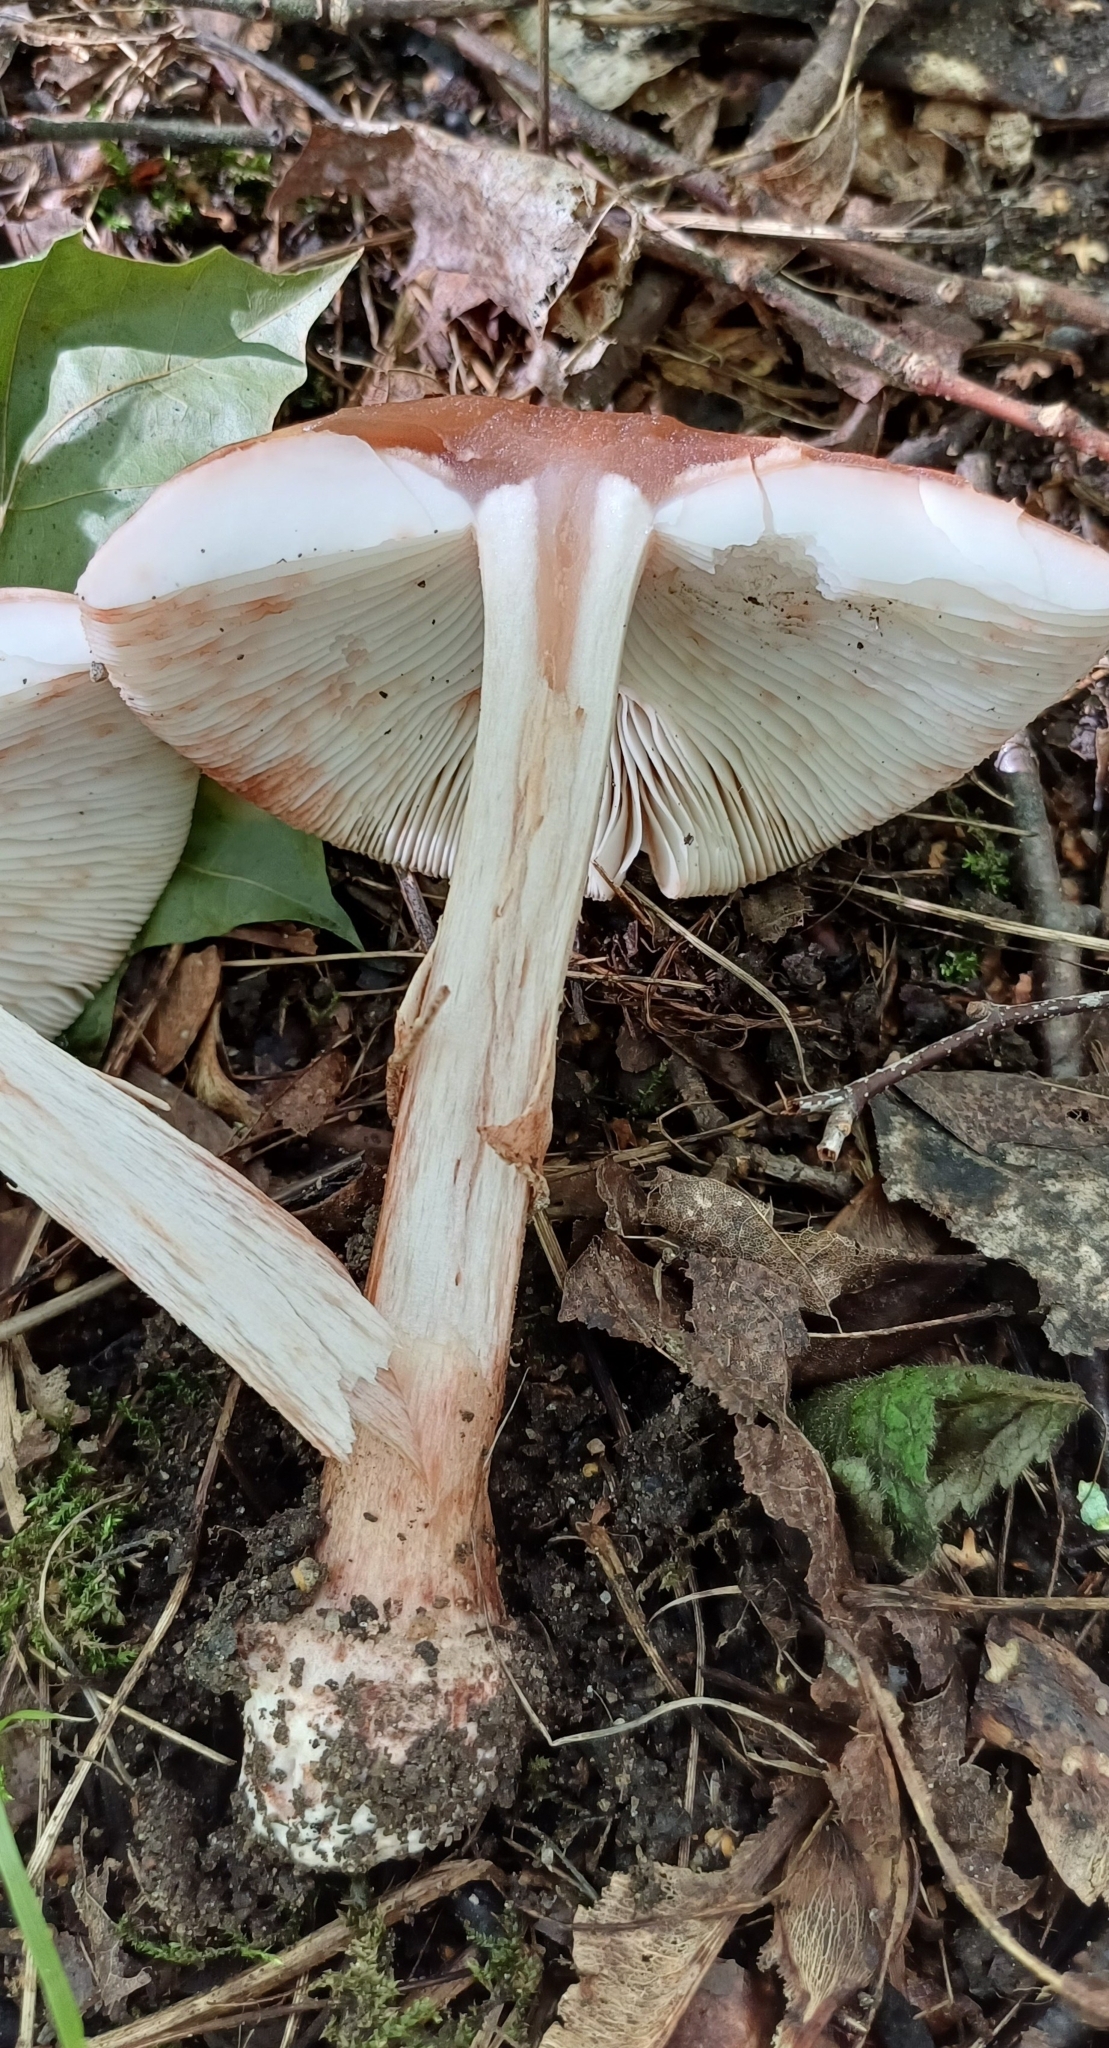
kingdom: Fungi
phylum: Basidiomycota
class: Agaricomycetes
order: Agaricales
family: Amanitaceae
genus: Amanita
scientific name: Amanita rubescens
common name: Blusher
